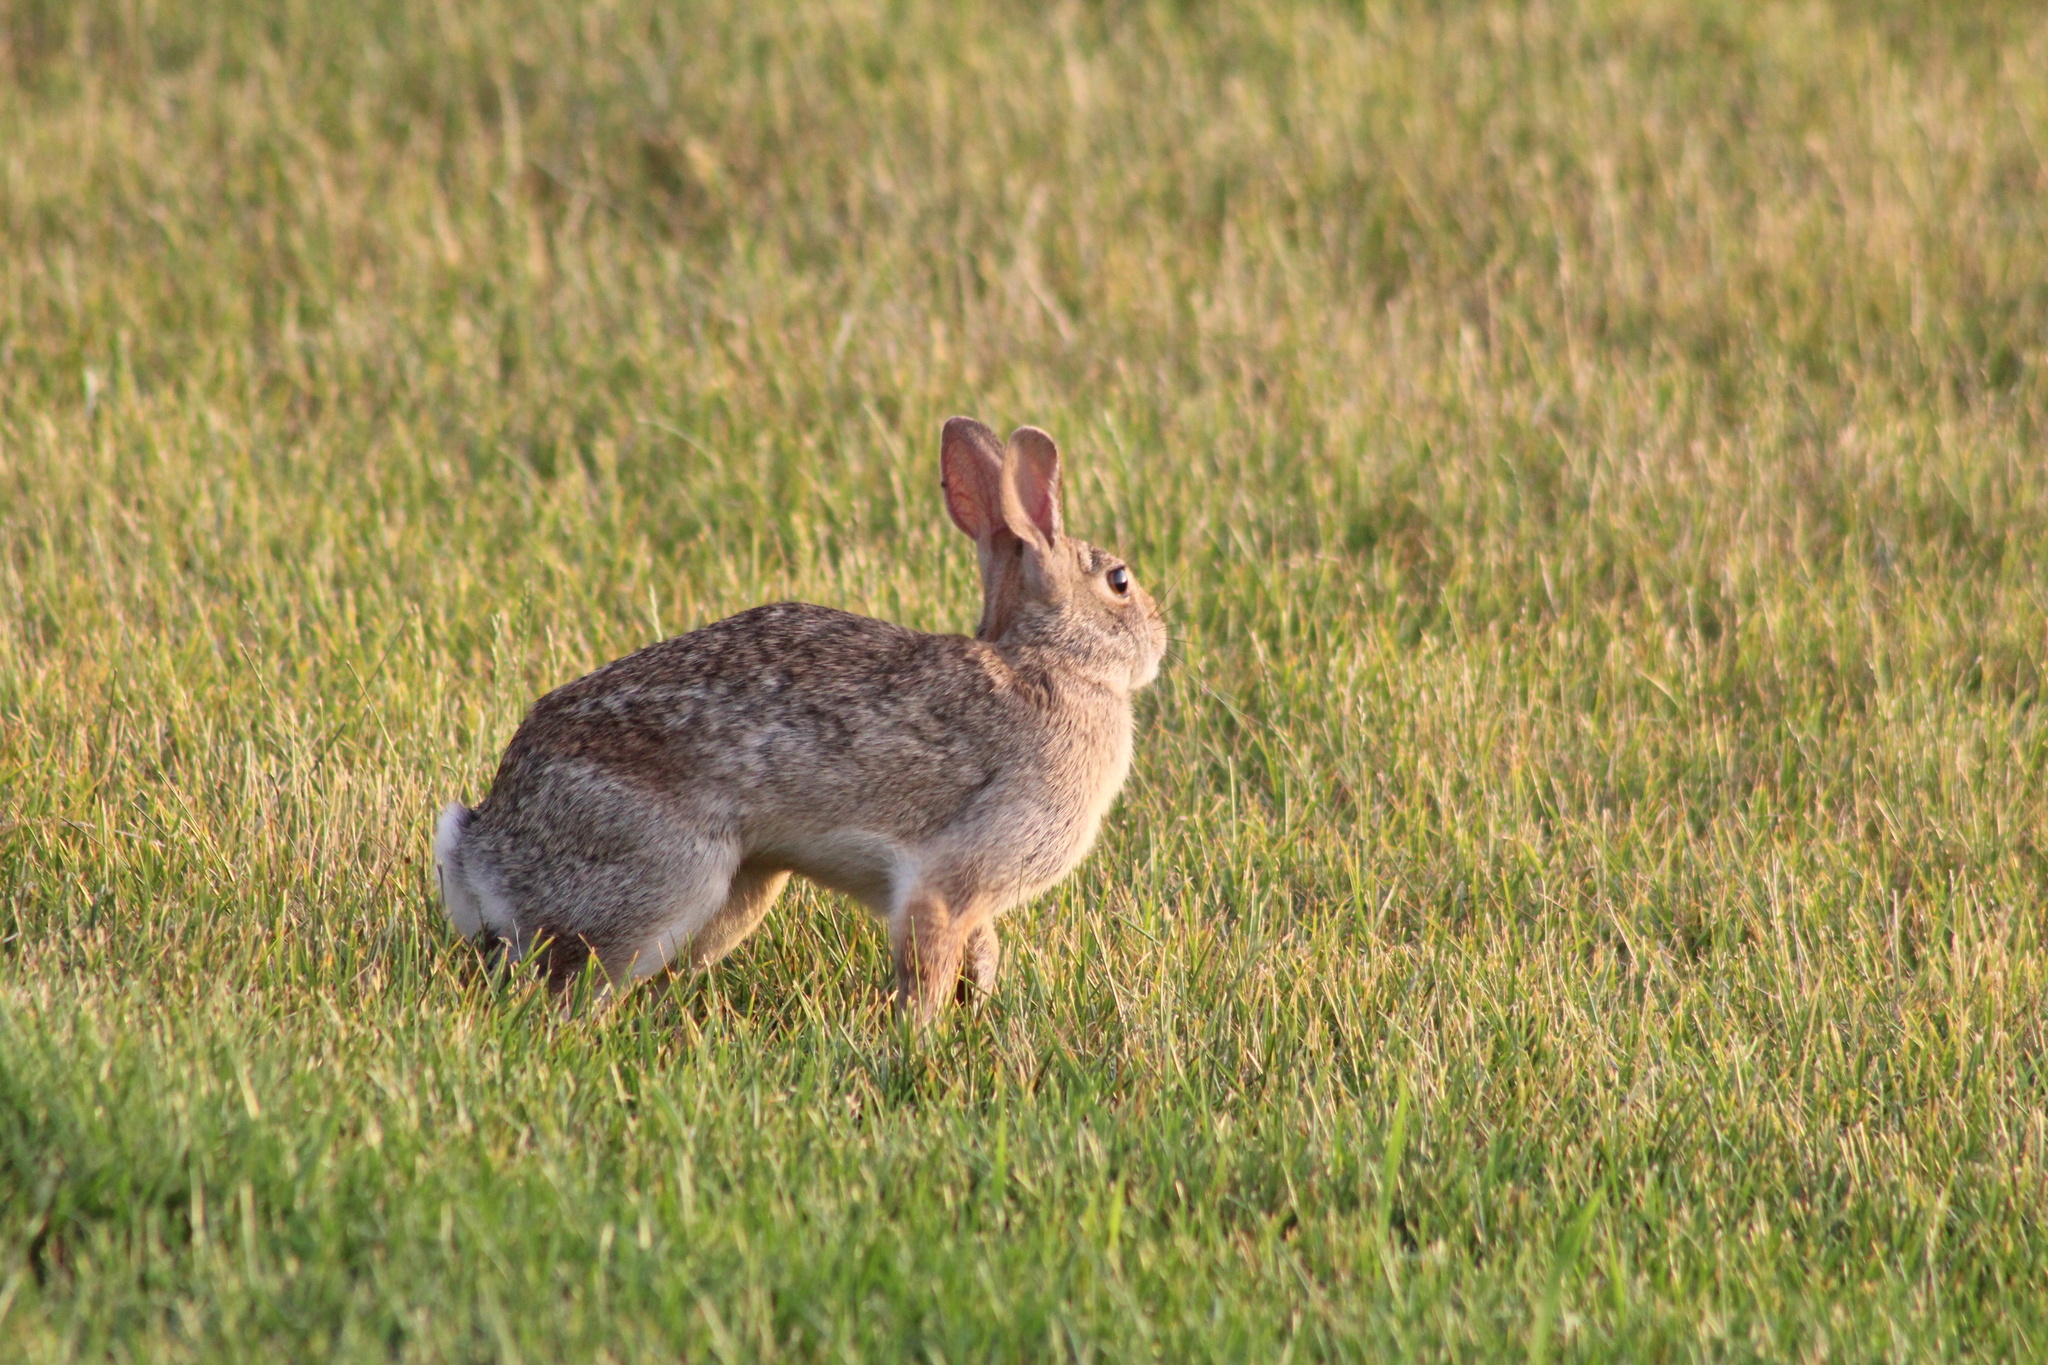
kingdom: Animalia
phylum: Chordata
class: Mammalia
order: Lagomorpha
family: Leporidae
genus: Sylvilagus
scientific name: Sylvilagus floridanus
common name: Eastern cottontail
